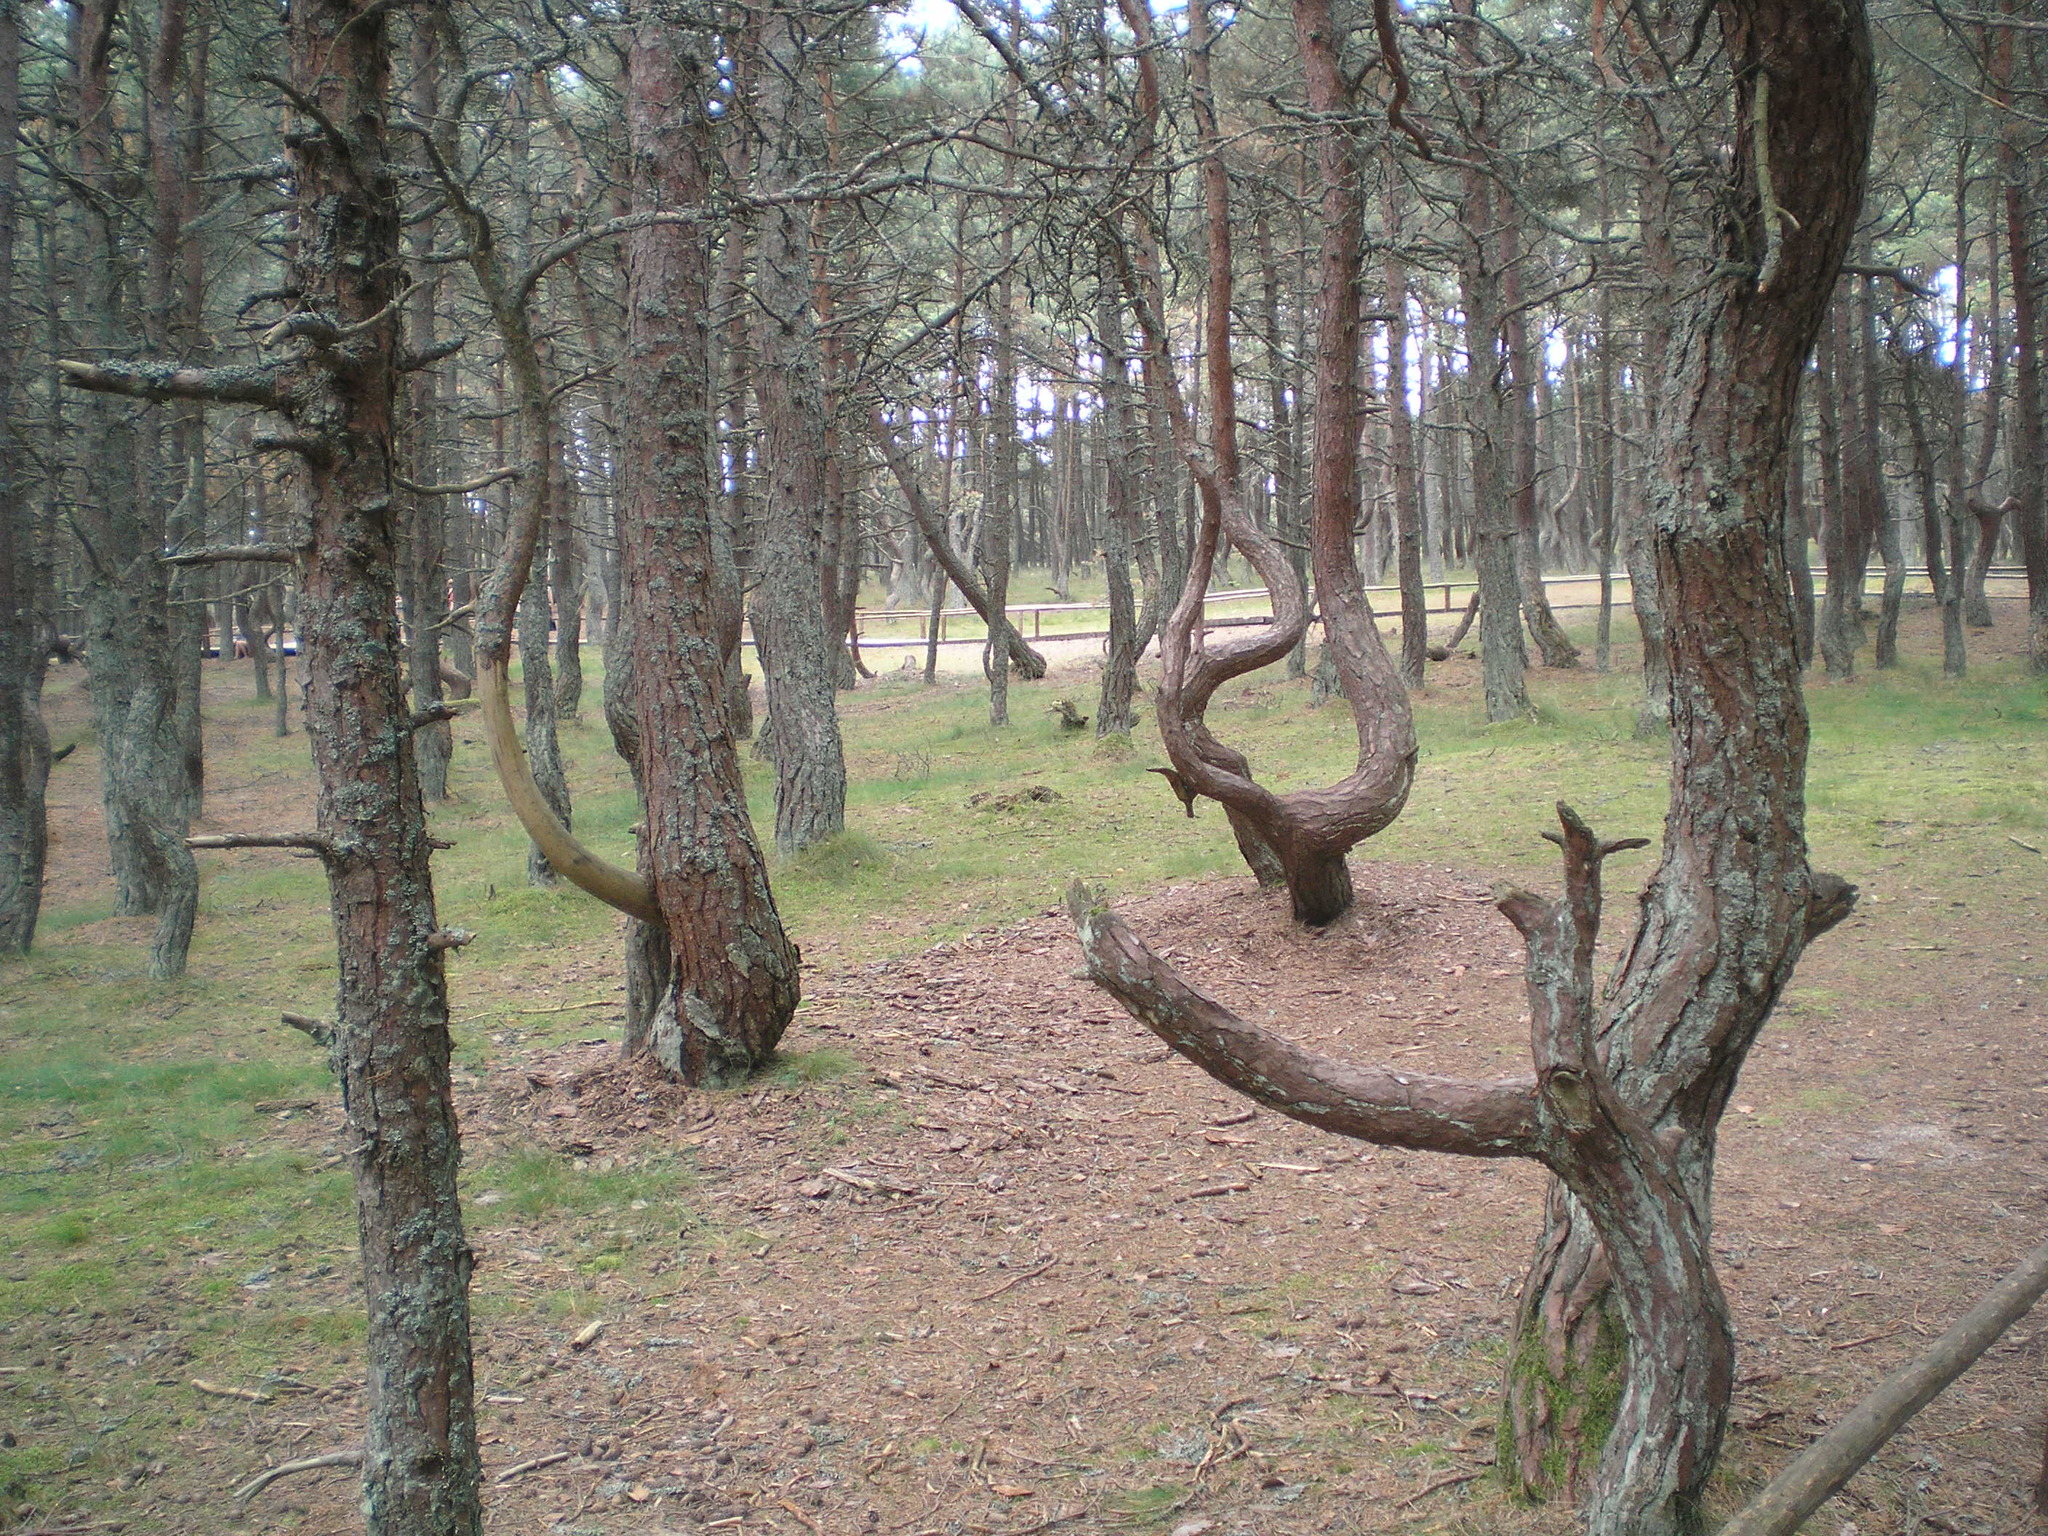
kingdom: Plantae
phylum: Tracheophyta
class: Pinopsida
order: Pinales
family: Pinaceae
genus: Pinus
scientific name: Pinus sylvestris
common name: Scots pine
